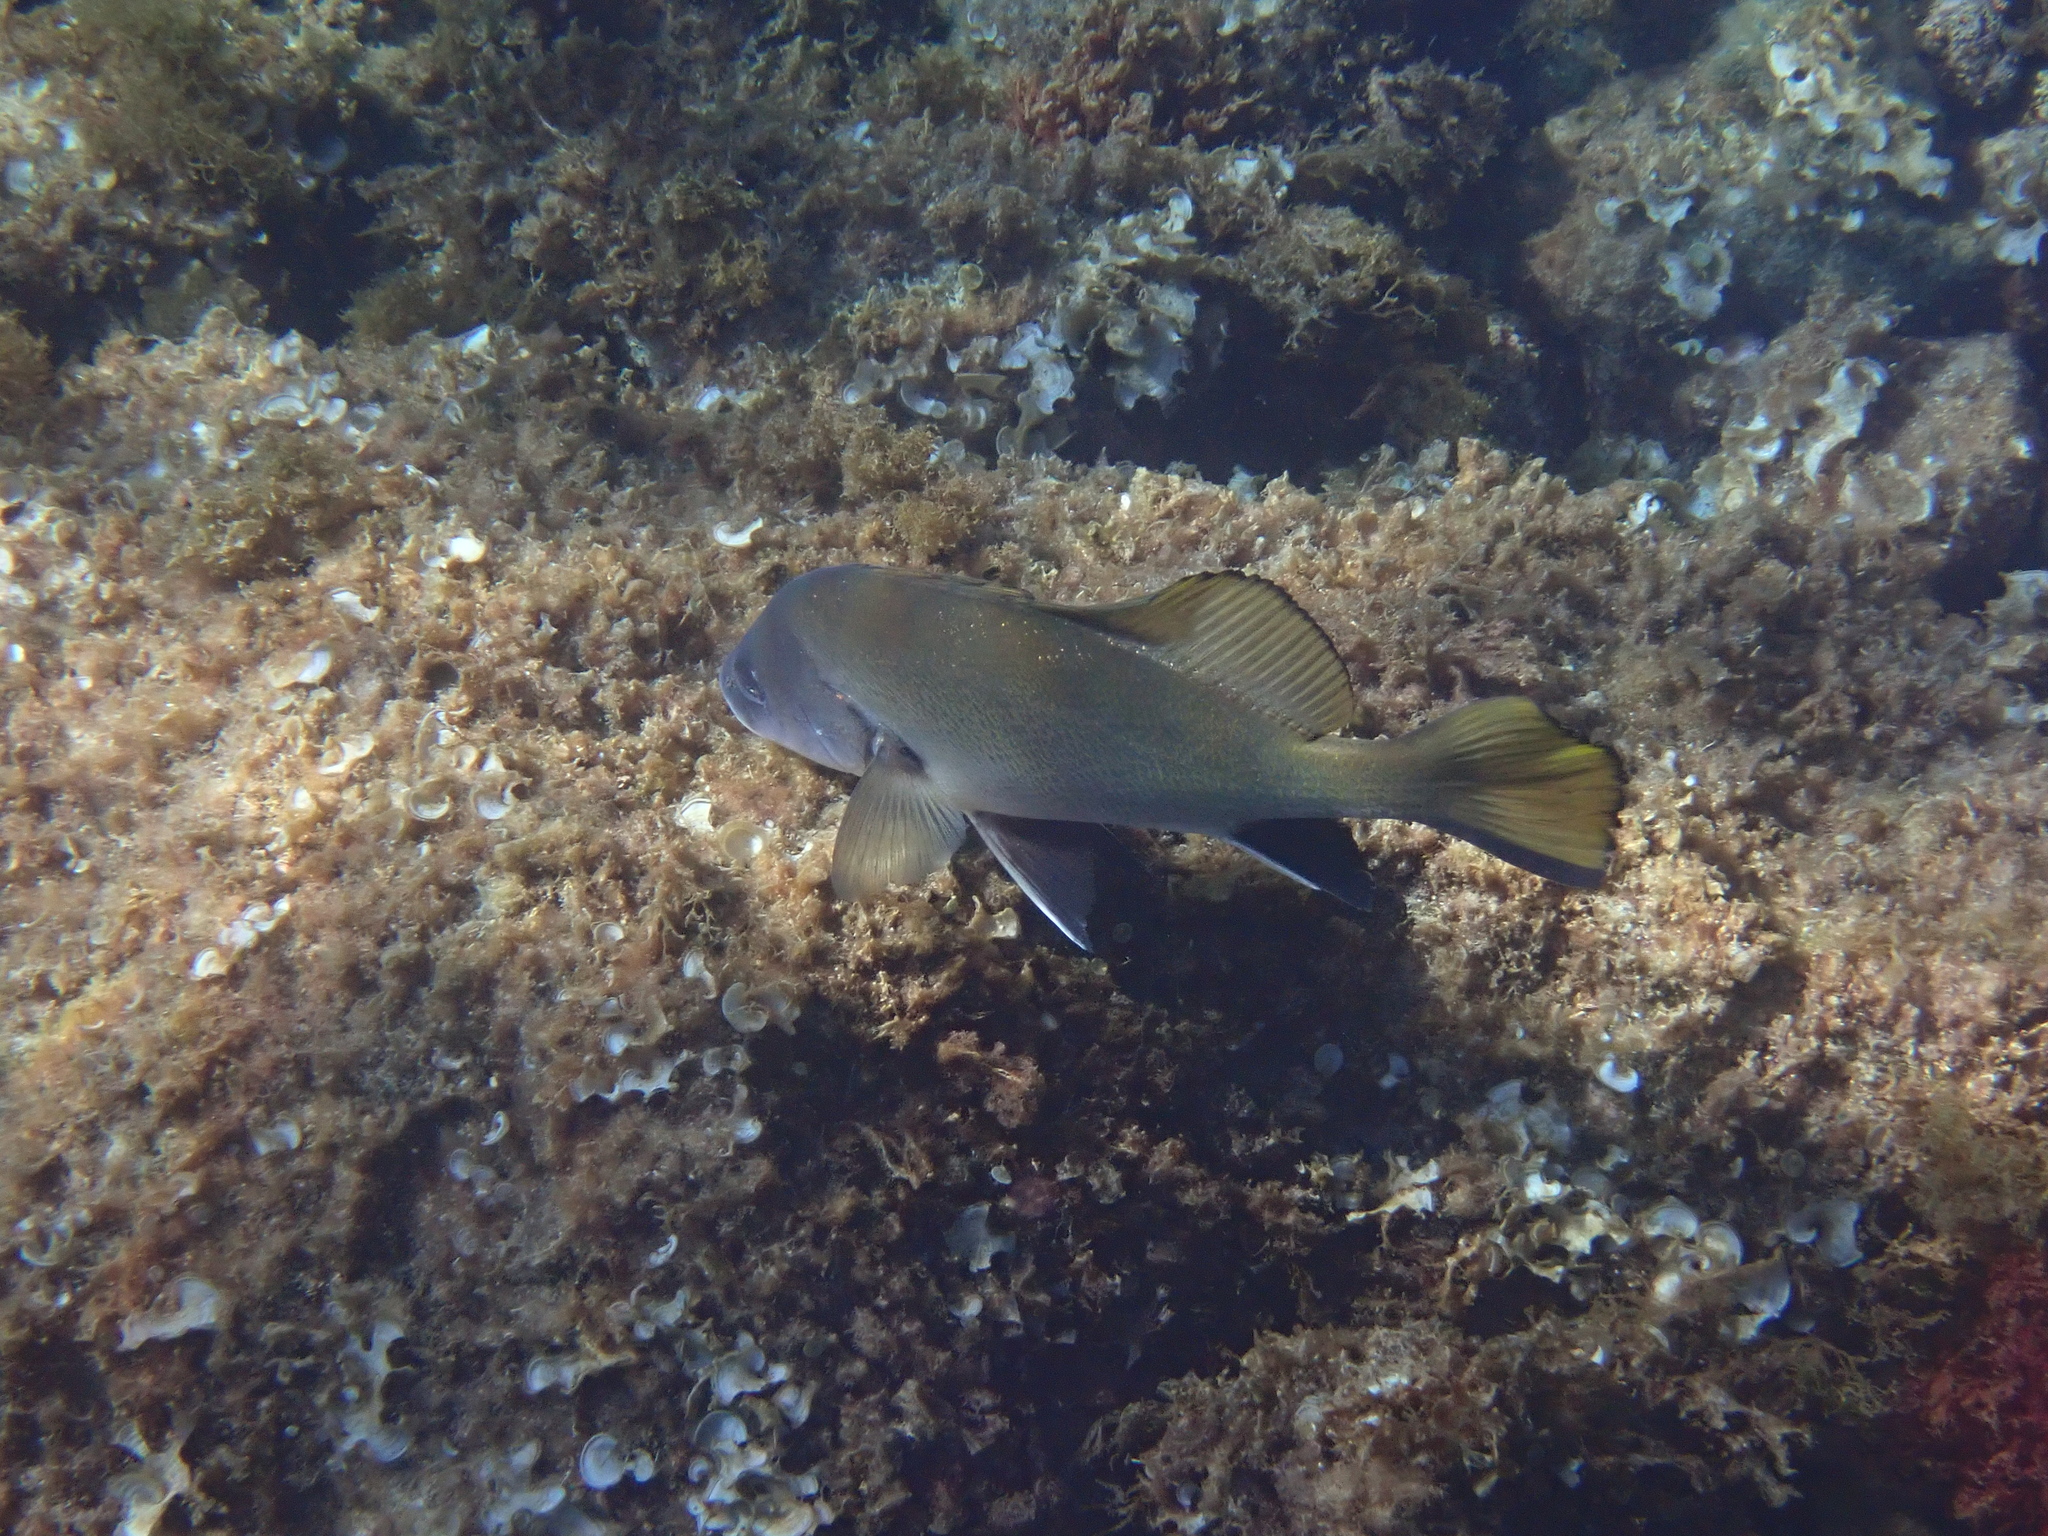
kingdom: Animalia
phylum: Chordata
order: Perciformes
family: Sciaenidae
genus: Sciaena
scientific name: Sciaena umbra
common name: Brown meagre
